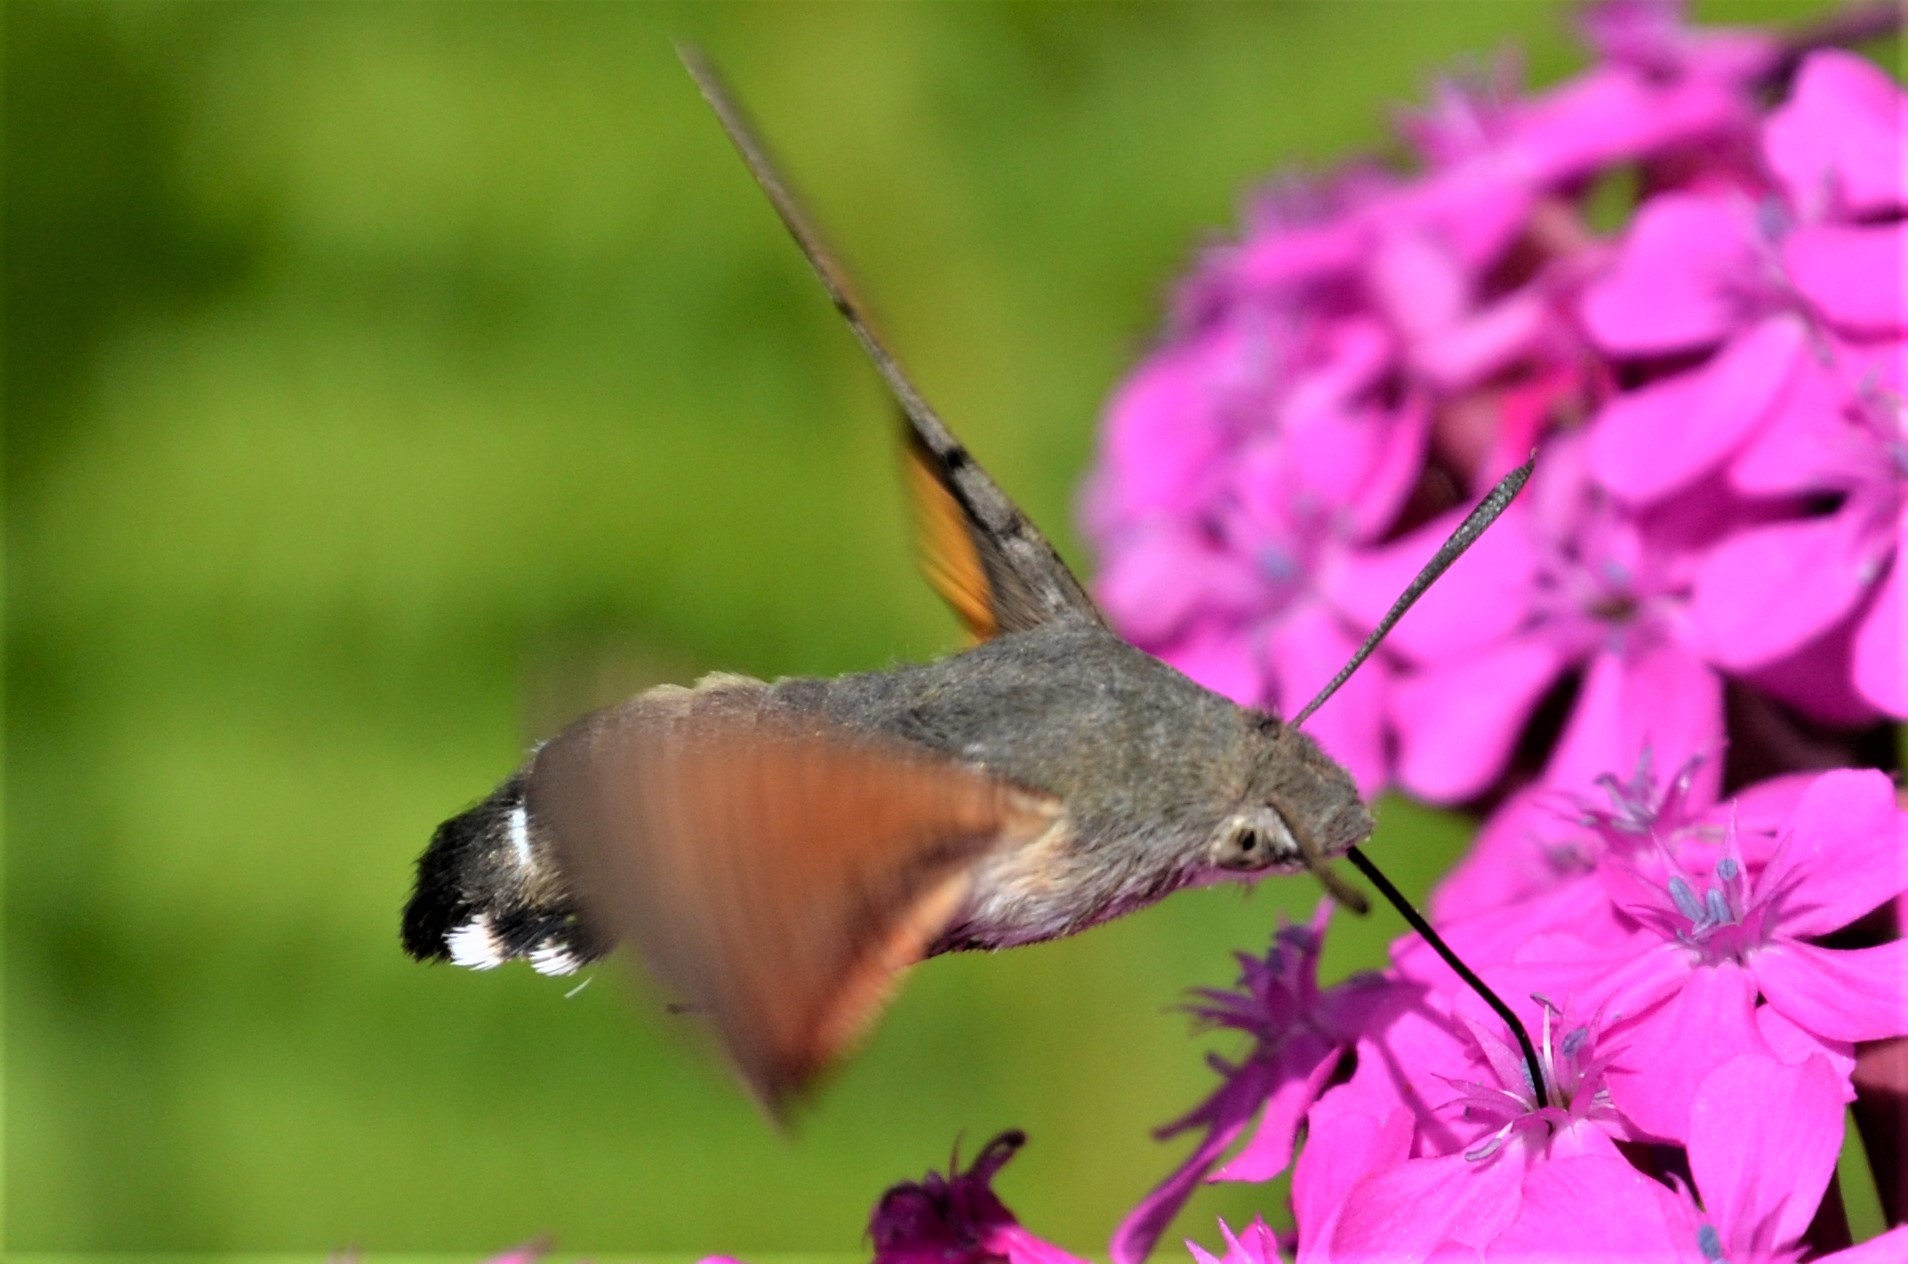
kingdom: Animalia
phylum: Arthropoda
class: Insecta
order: Lepidoptera
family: Sphingidae
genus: Macroglossum
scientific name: Macroglossum stellatarum
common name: Humming-bird hawk-moth
